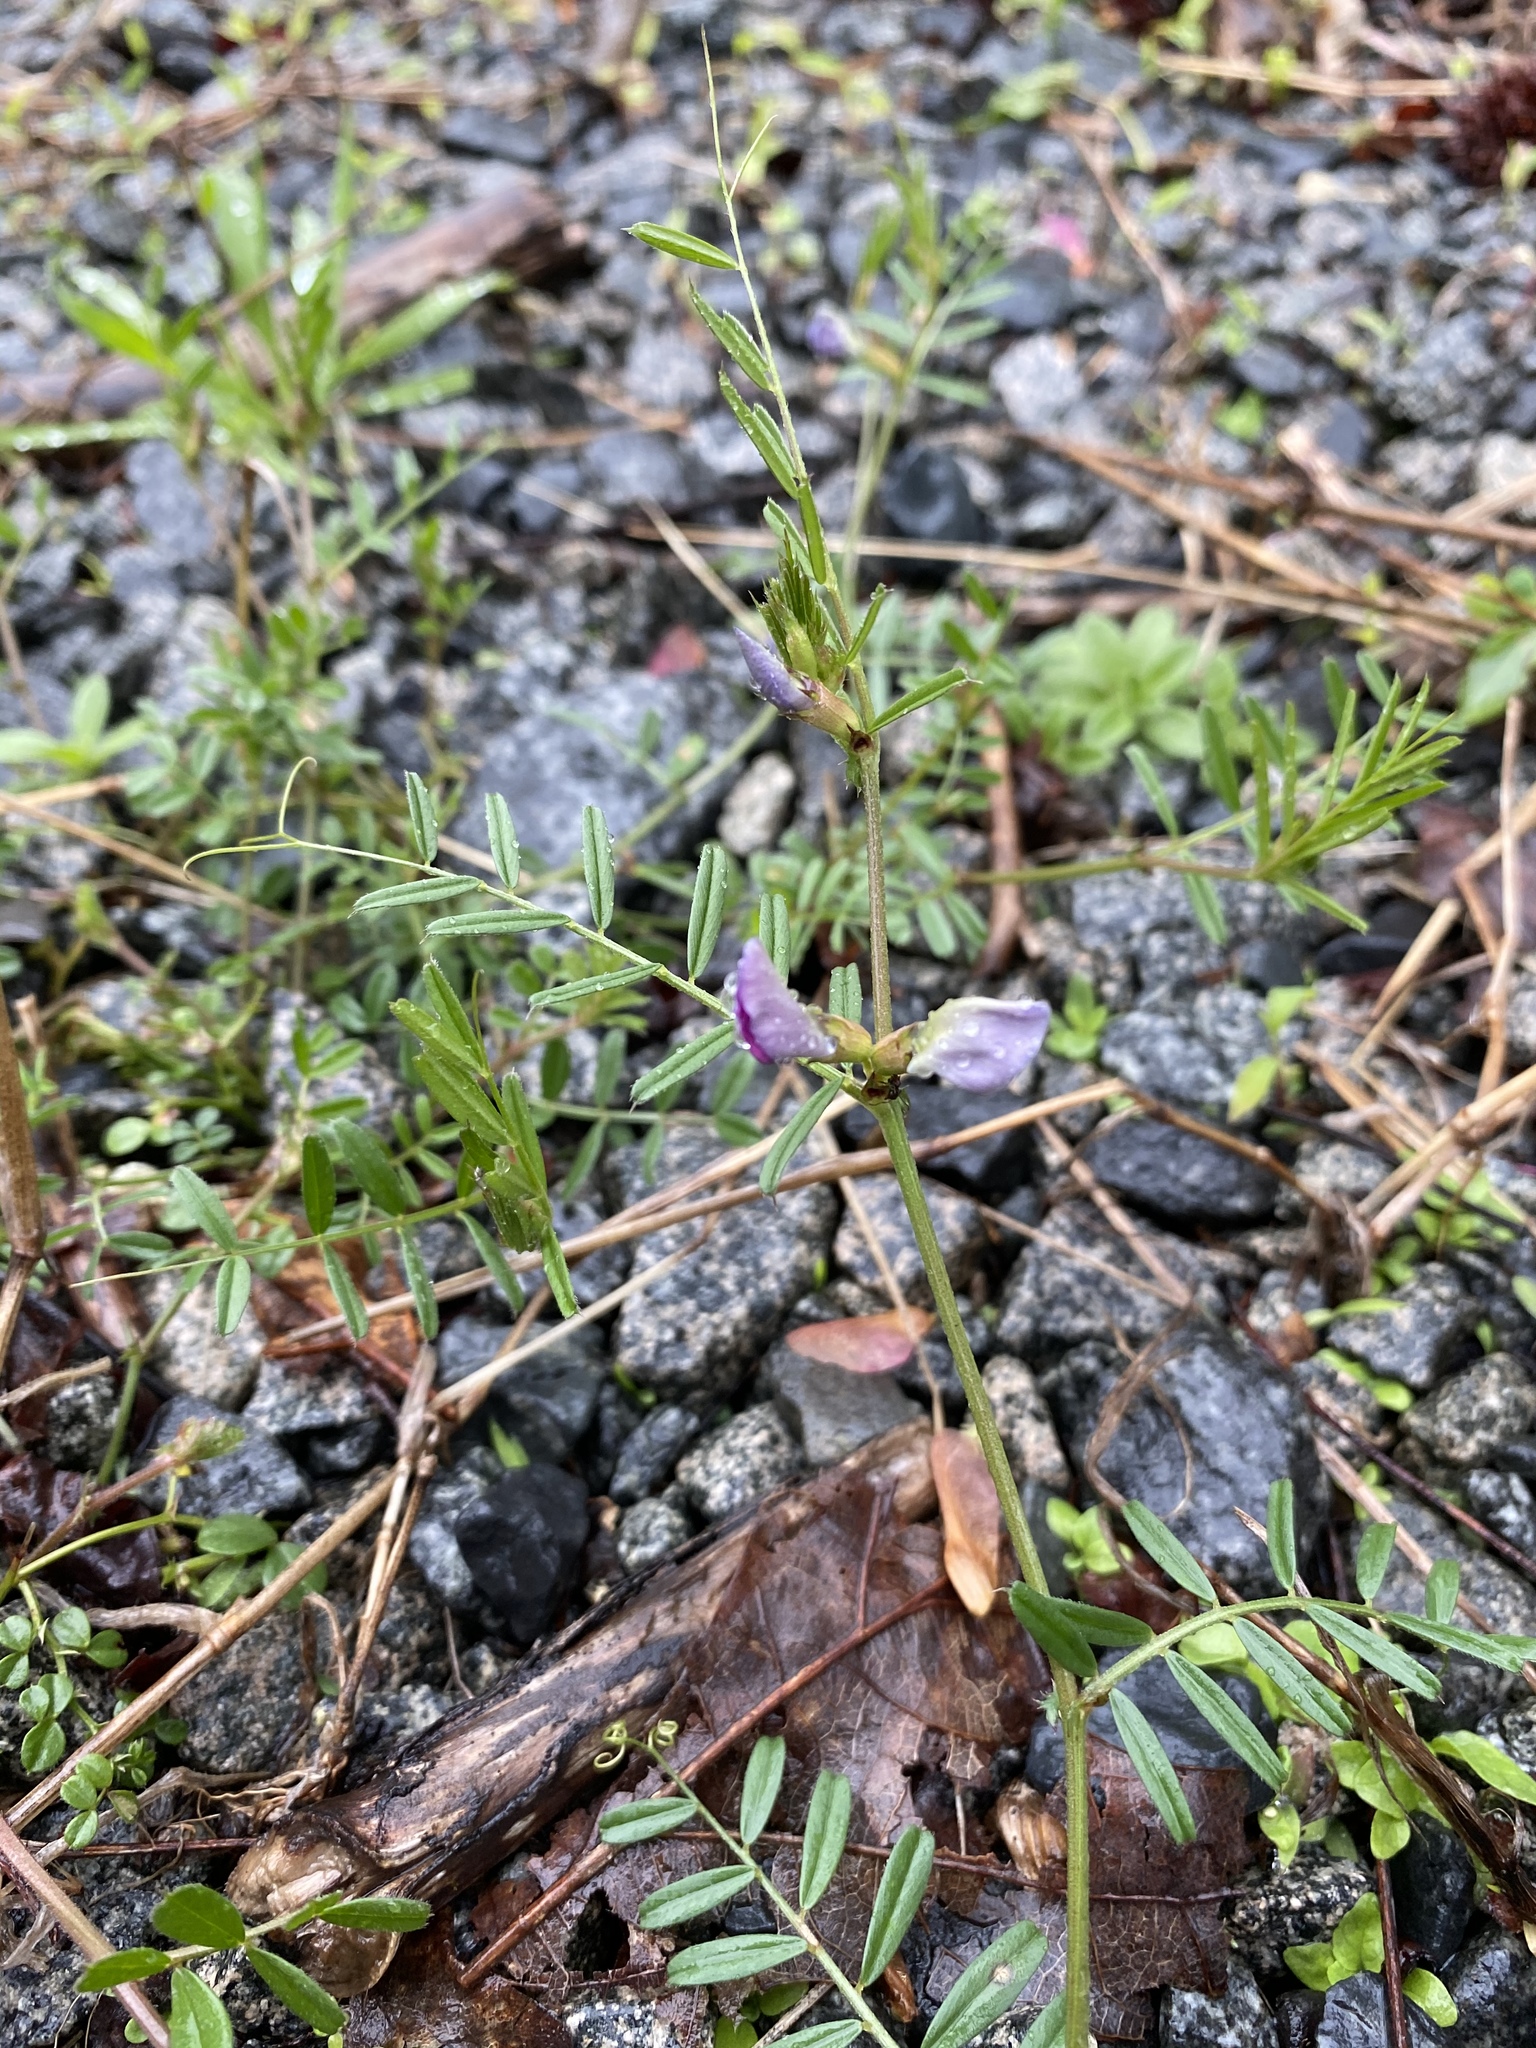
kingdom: Plantae
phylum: Tracheophyta
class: Magnoliopsida
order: Fabales
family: Fabaceae
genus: Vicia
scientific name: Vicia sativa
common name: Garden vetch
